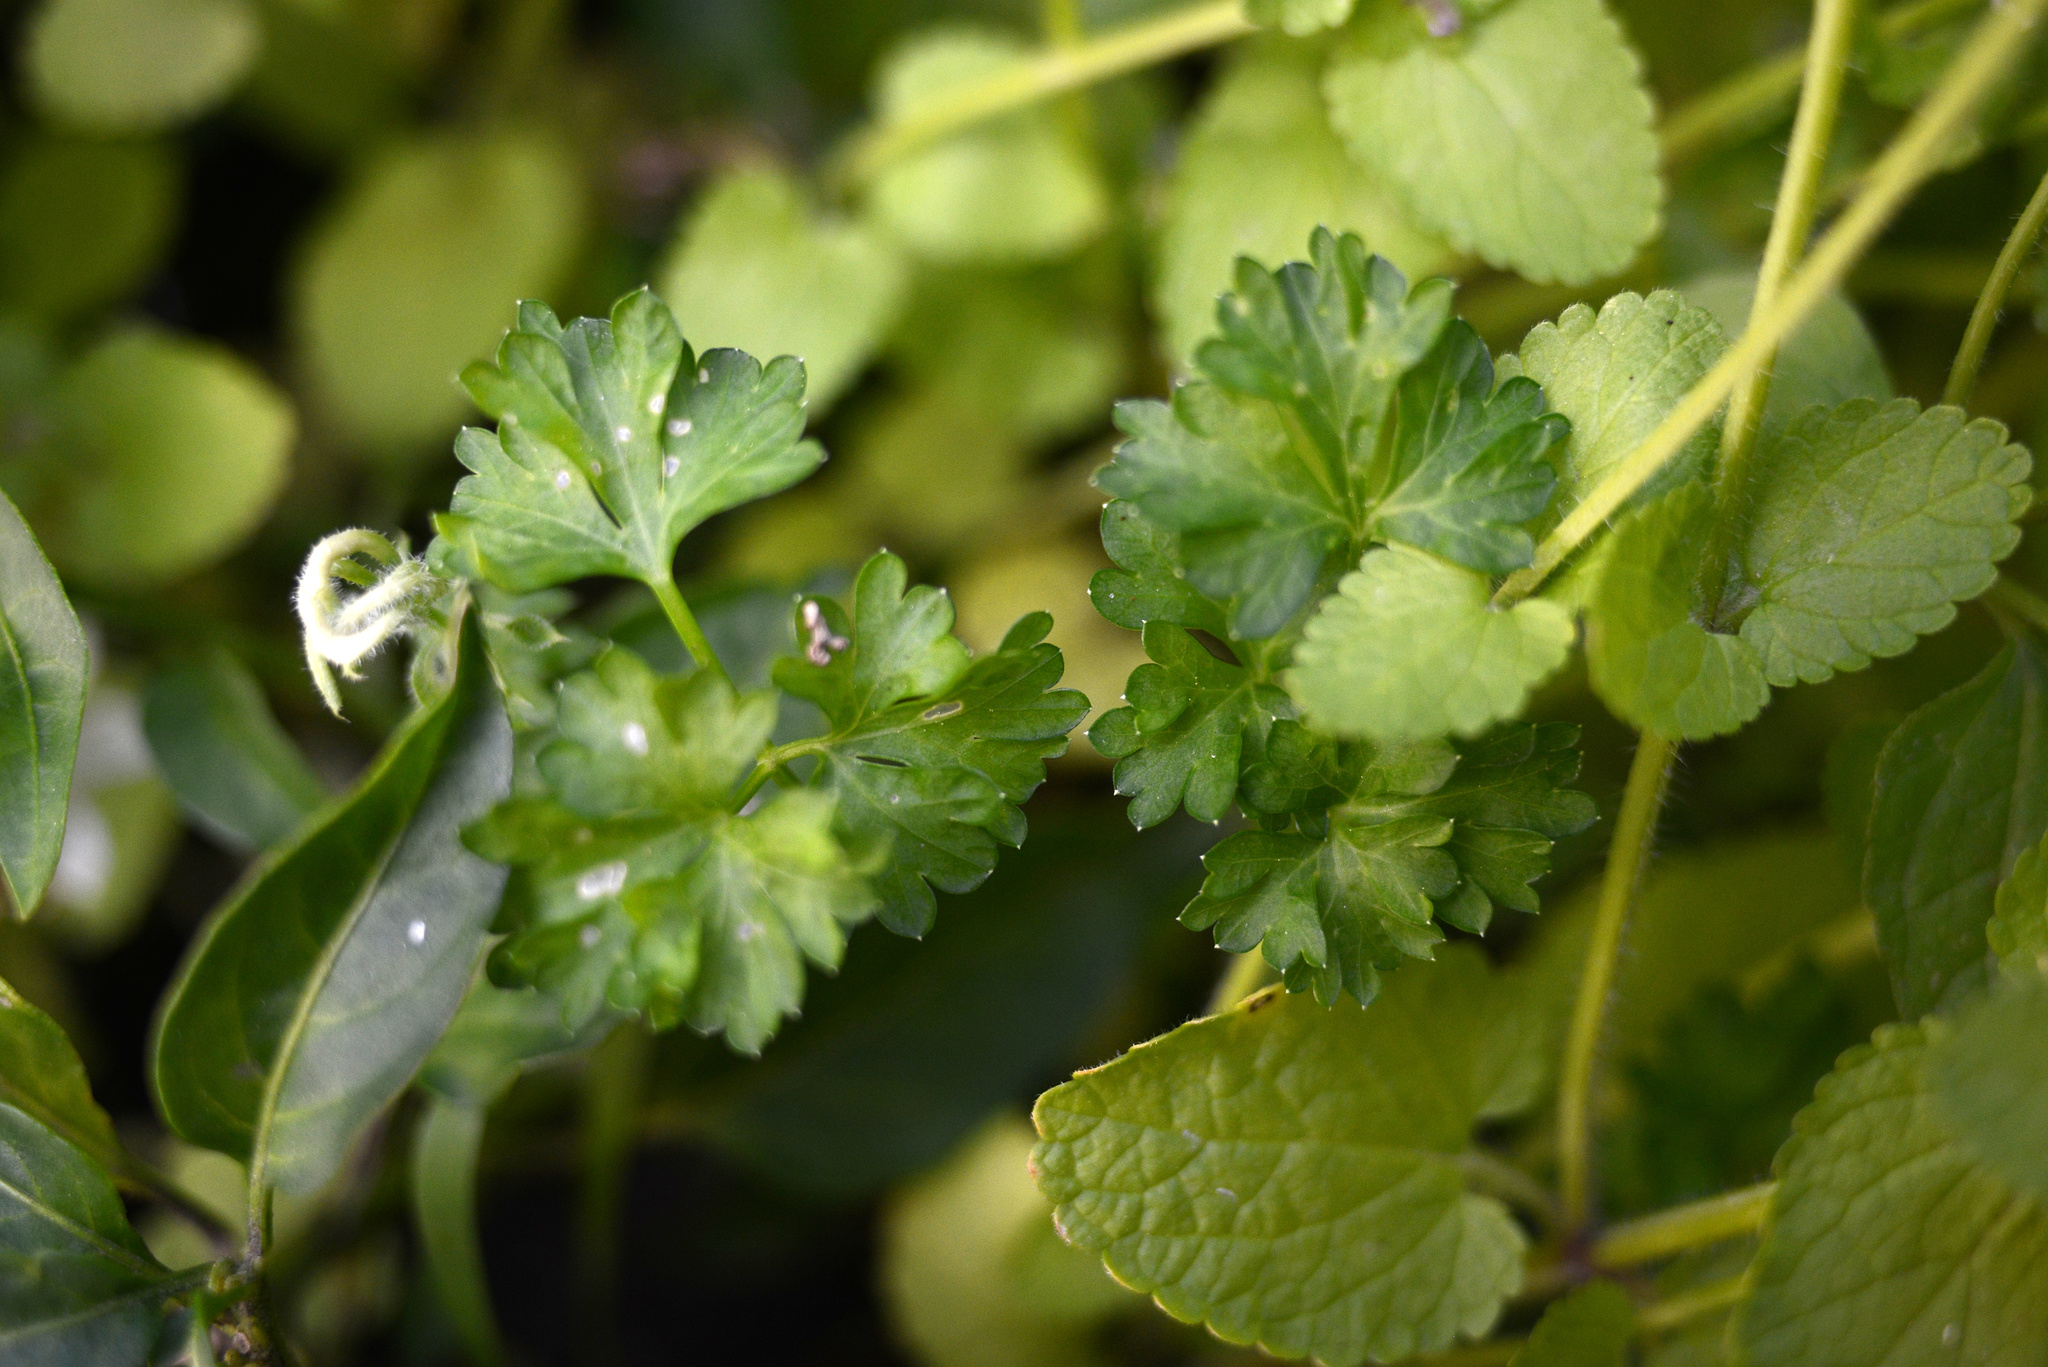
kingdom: Plantae
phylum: Tracheophyta
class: Magnoliopsida
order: Apiales
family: Apiaceae
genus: Petroselinum
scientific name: Petroselinum crispum
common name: Parsley
